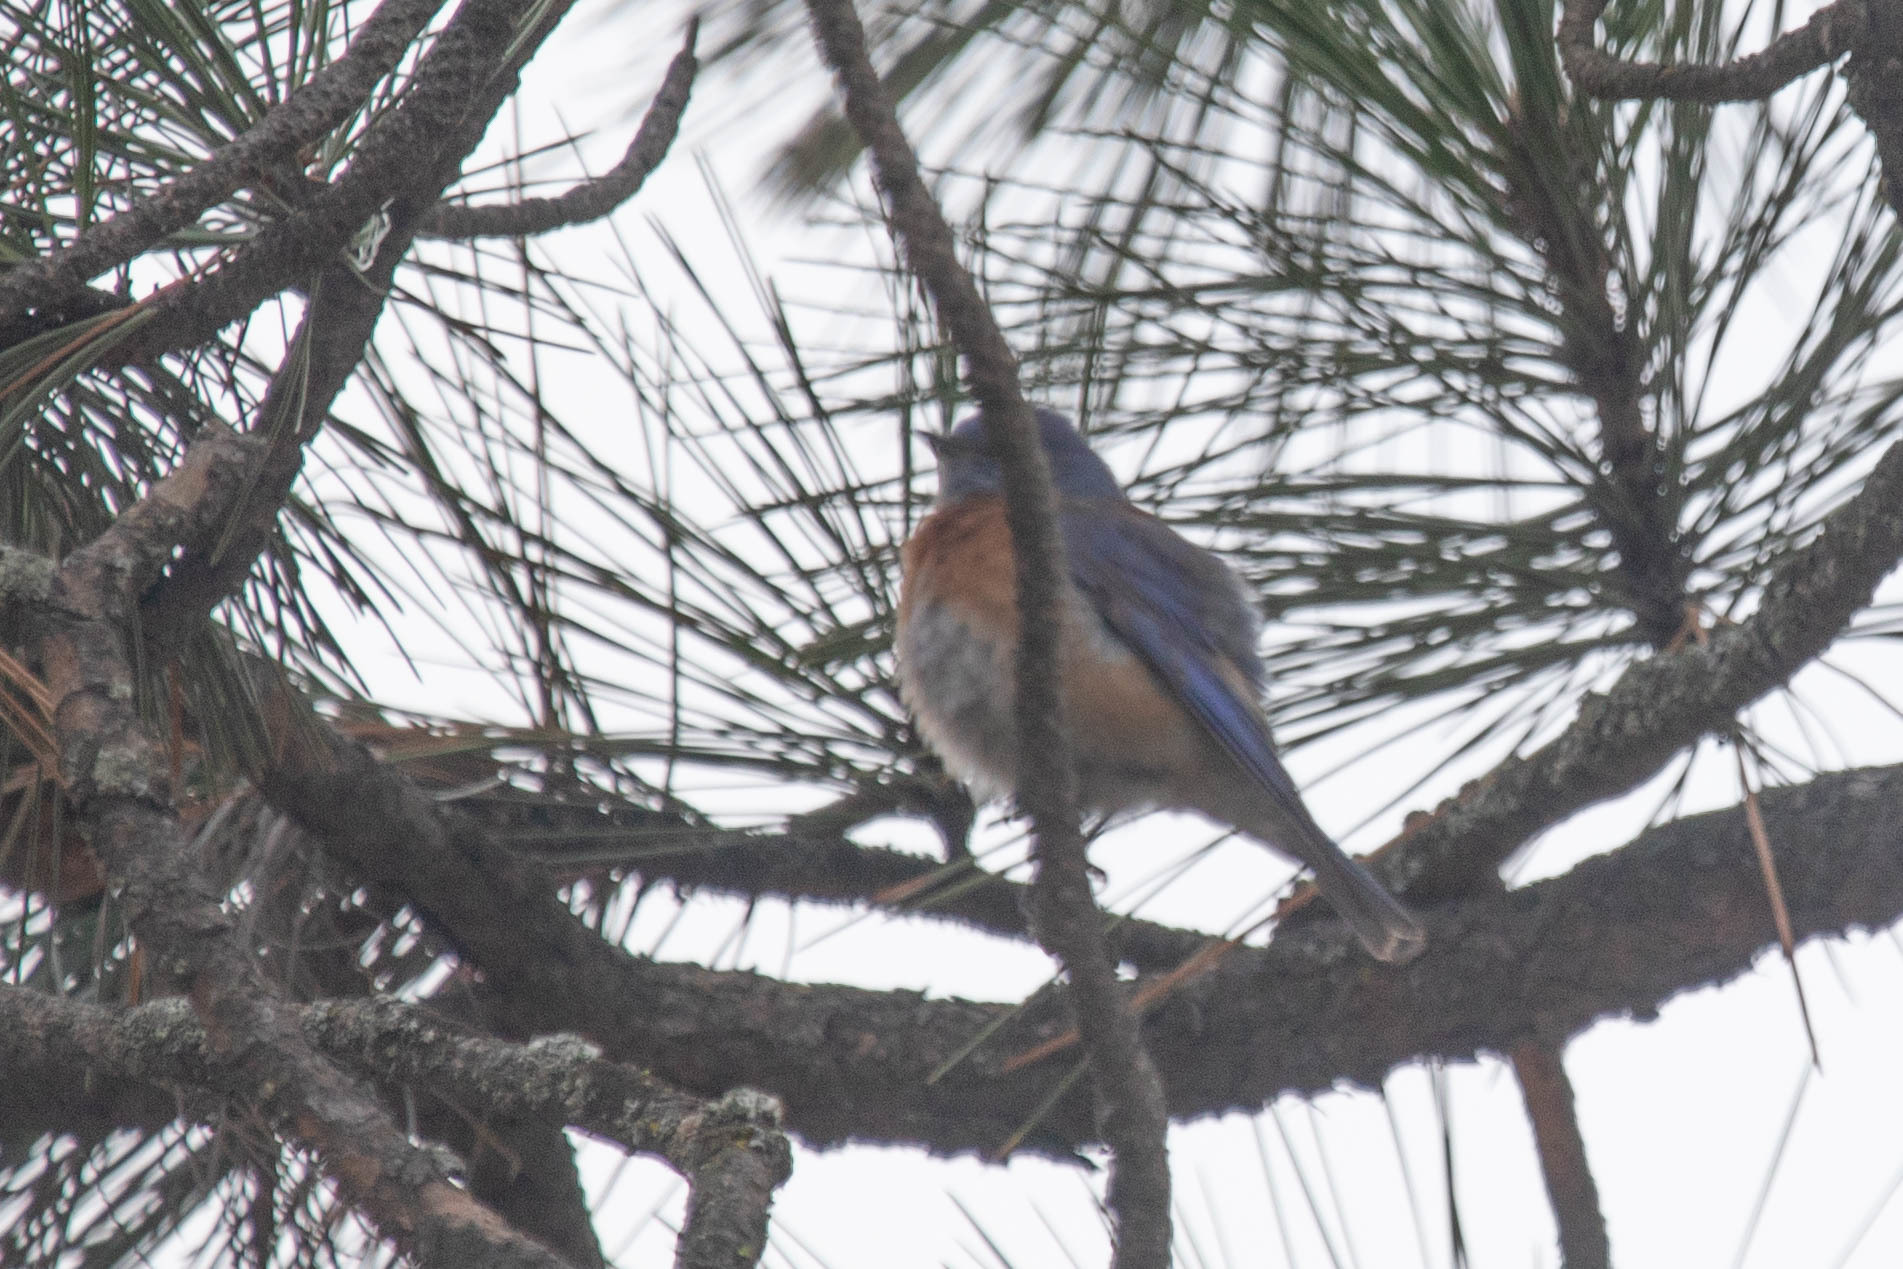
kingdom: Animalia
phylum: Chordata
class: Aves
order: Passeriformes
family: Turdidae
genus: Sialia
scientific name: Sialia mexicana
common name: Western bluebird
